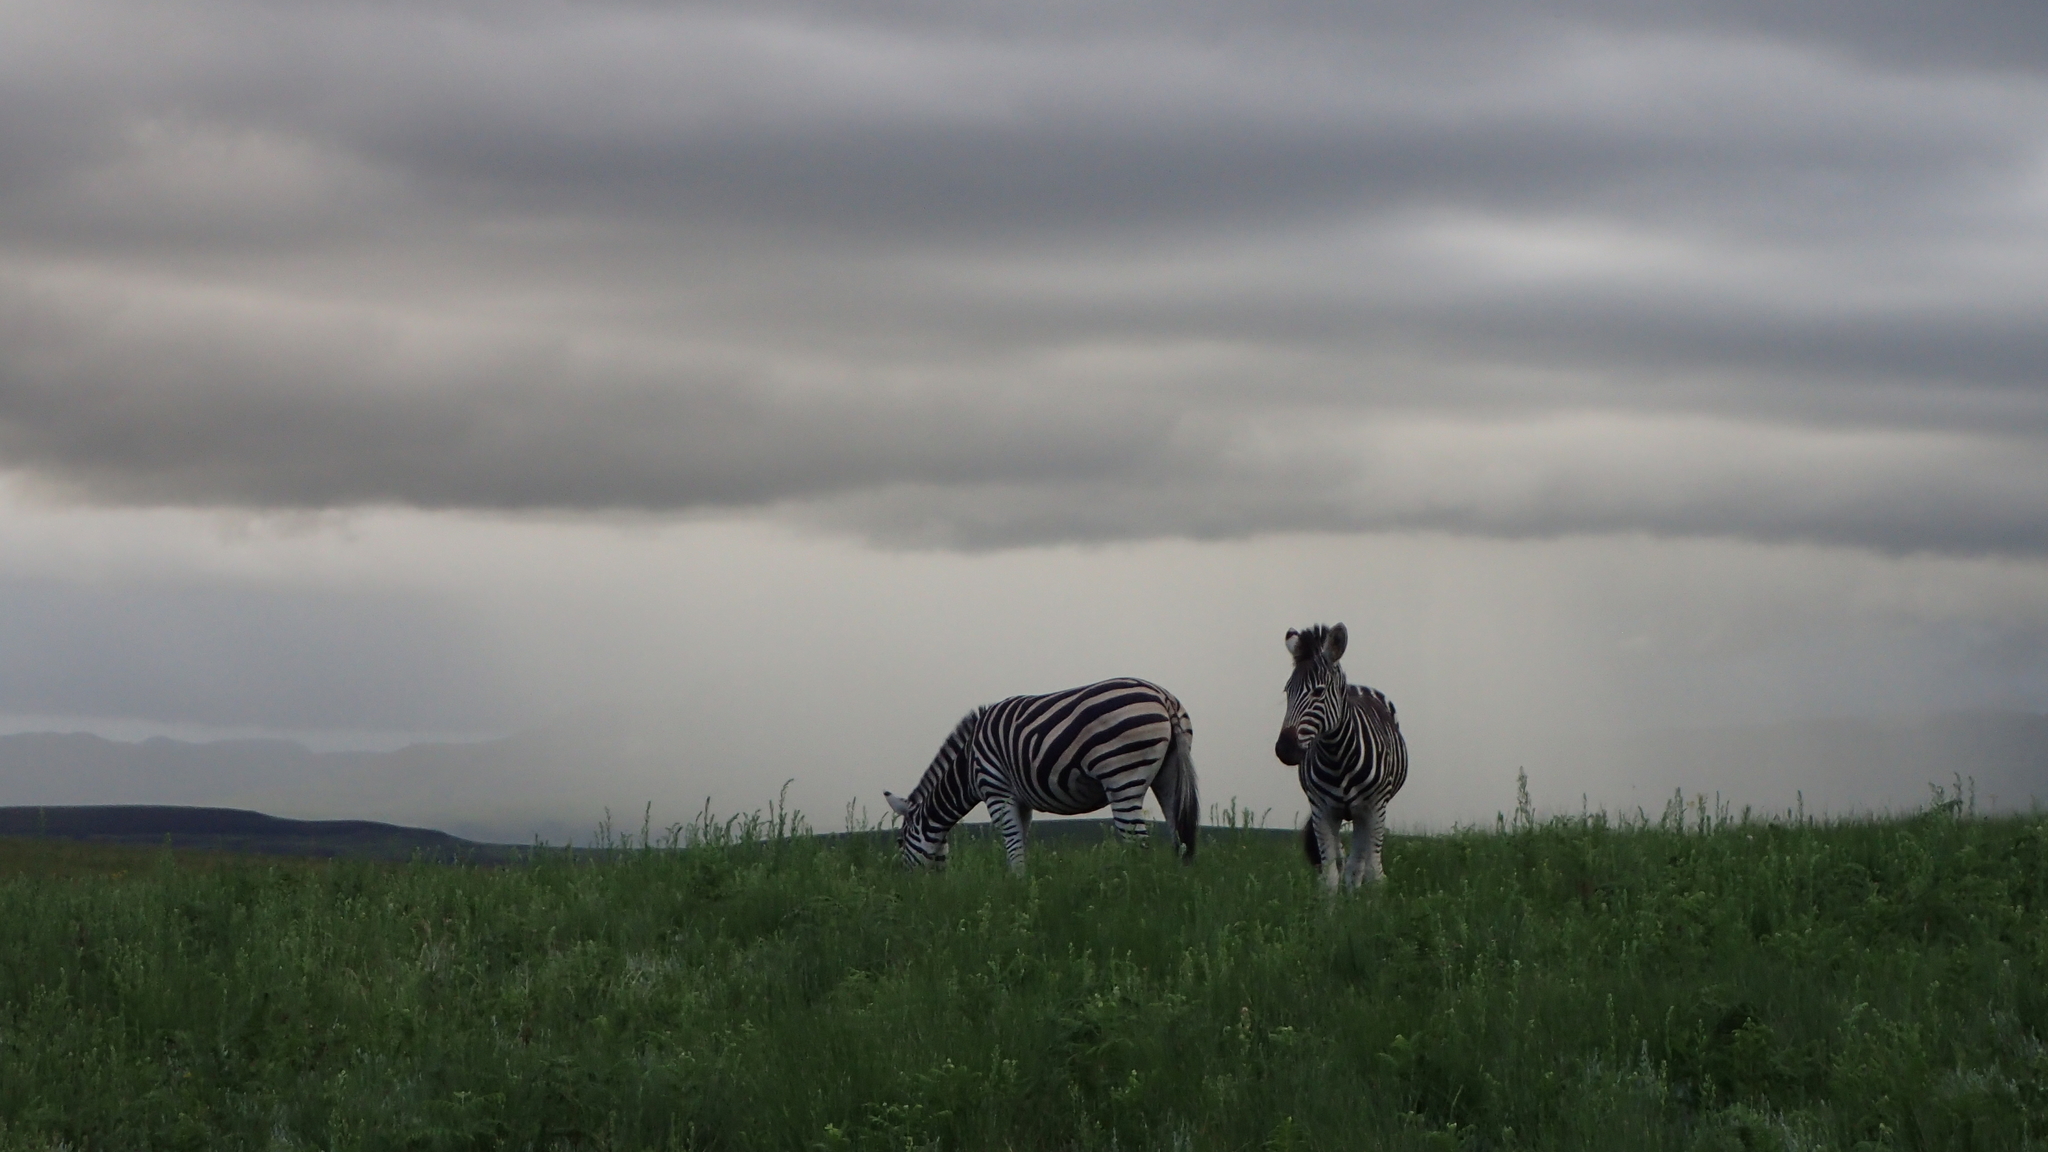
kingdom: Animalia
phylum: Chordata
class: Mammalia
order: Perissodactyla
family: Equidae
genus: Equus
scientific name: Equus quagga
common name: Plains zebra
